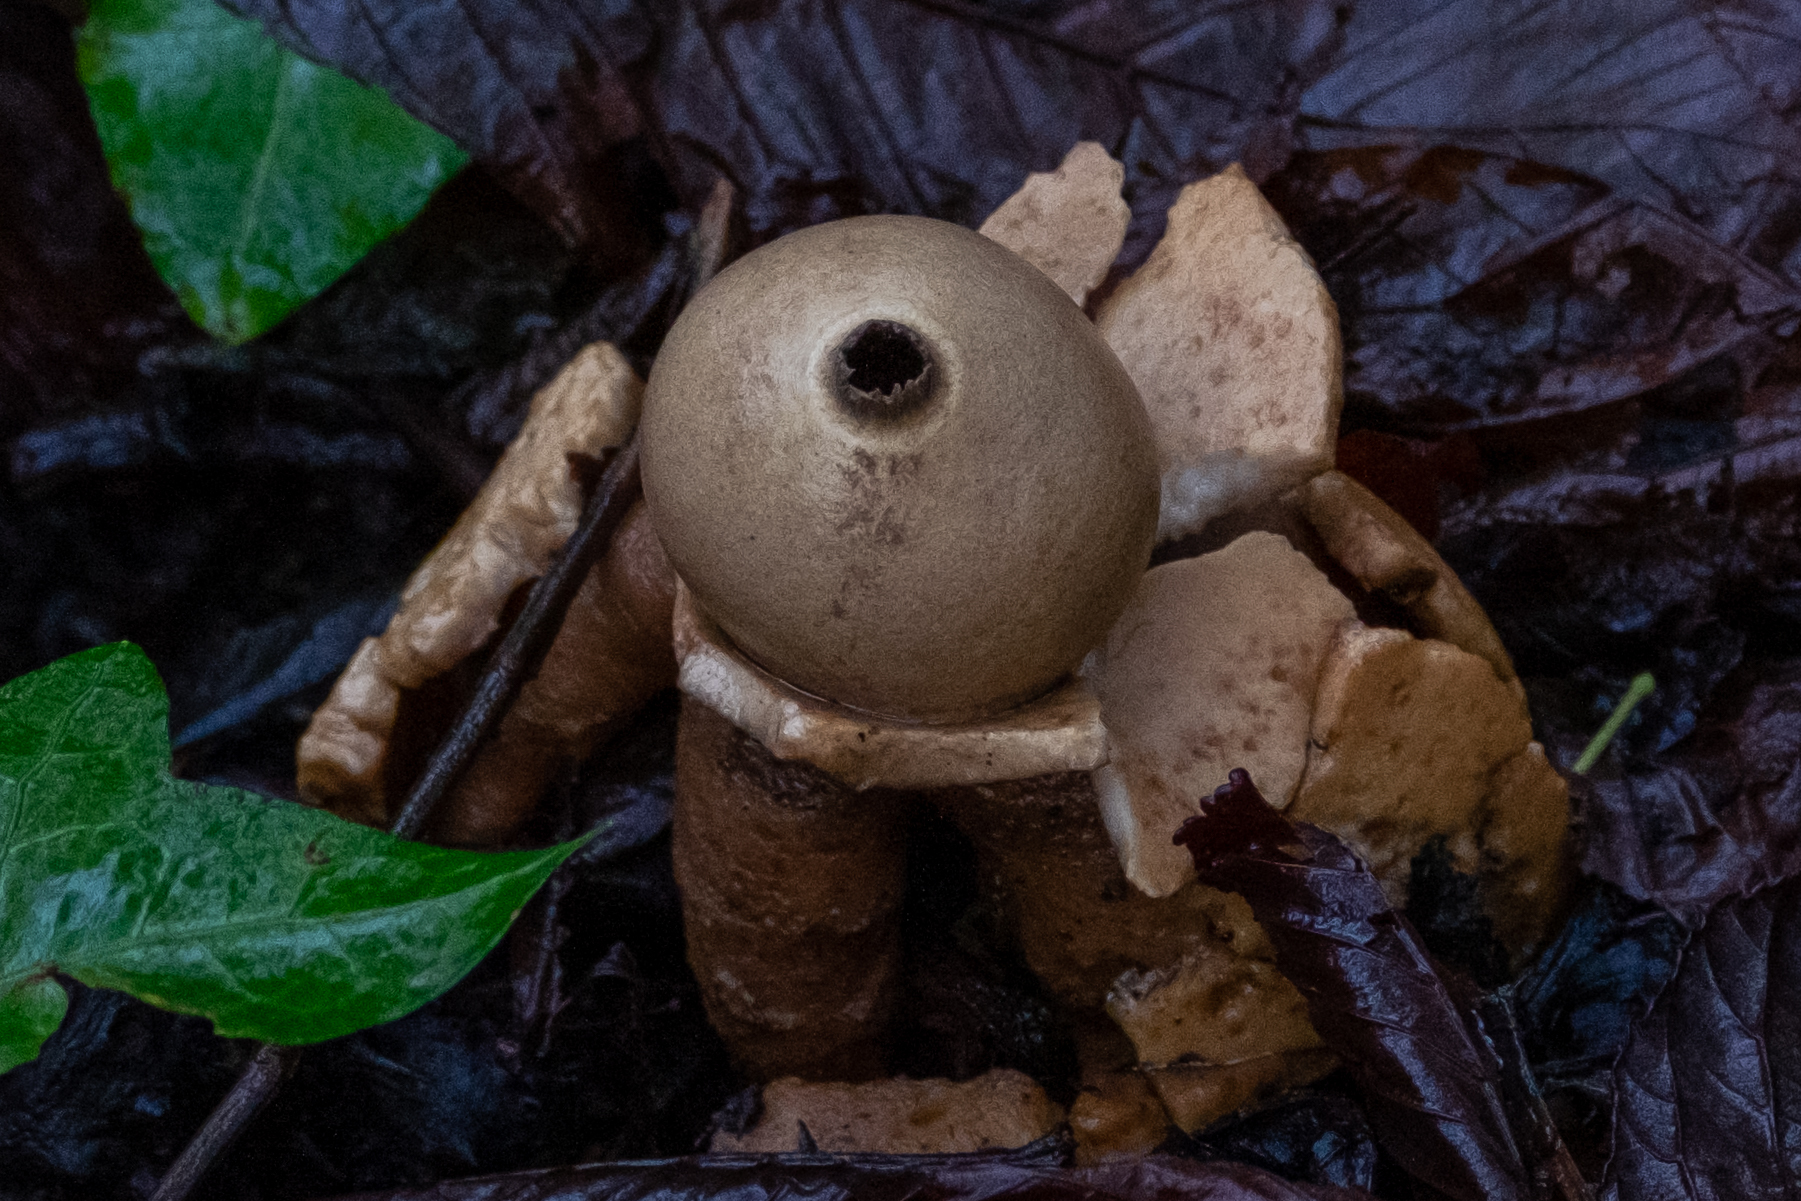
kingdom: Fungi
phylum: Basidiomycota
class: Agaricomycetes
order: Geastrales
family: Geastraceae
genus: Geastrum
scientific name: Geastrum triplex
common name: Collared earthstar
